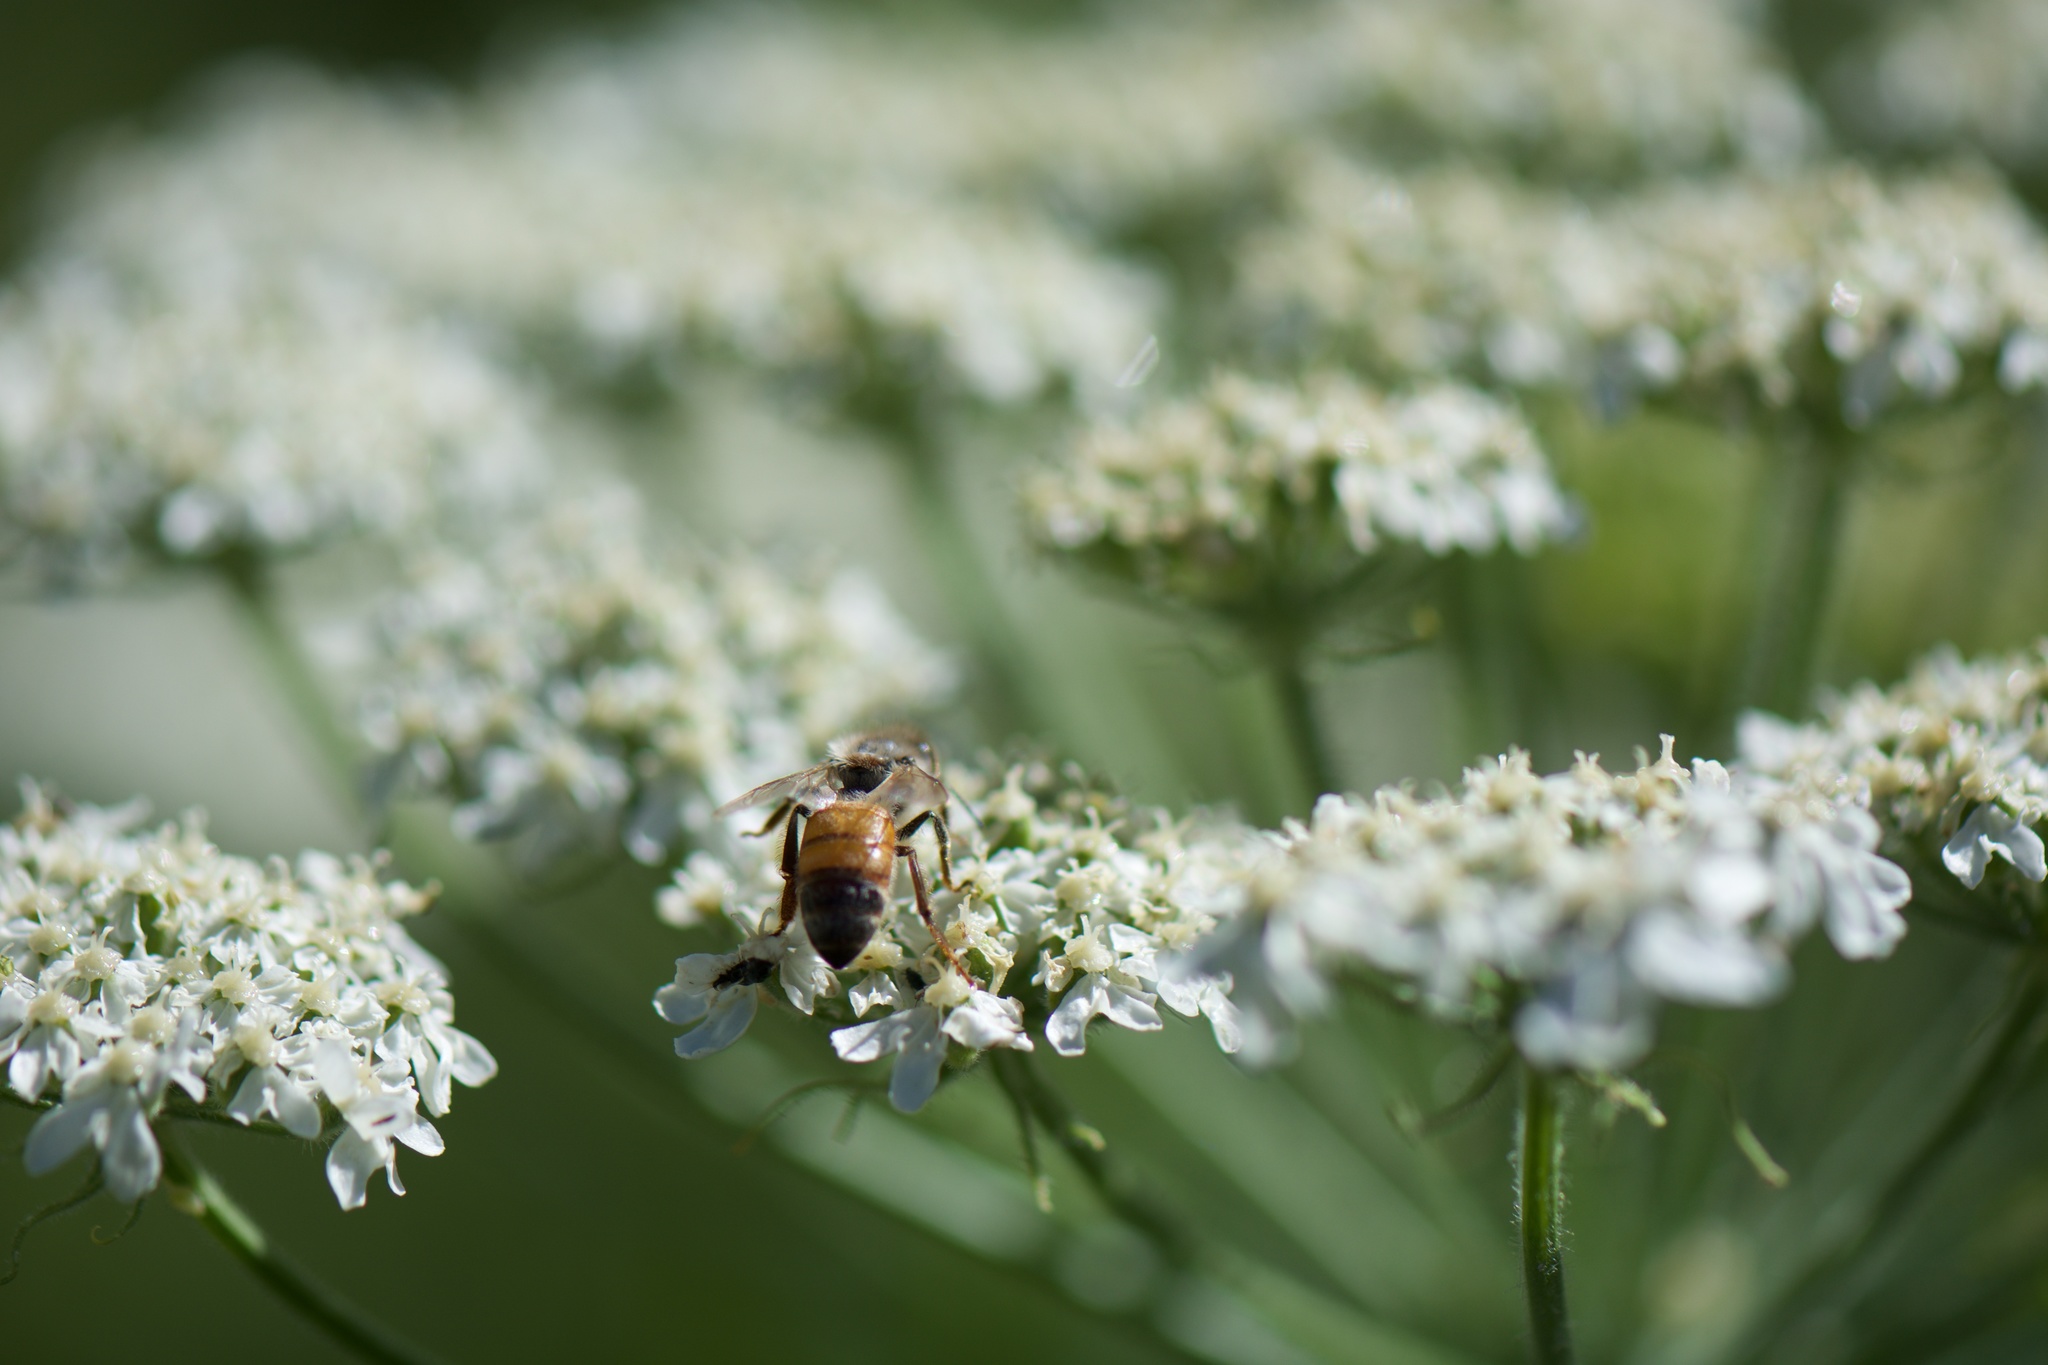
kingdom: Animalia
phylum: Arthropoda
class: Insecta
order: Hymenoptera
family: Apidae
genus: Apis
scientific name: Apis mellifera
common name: Honey bee
